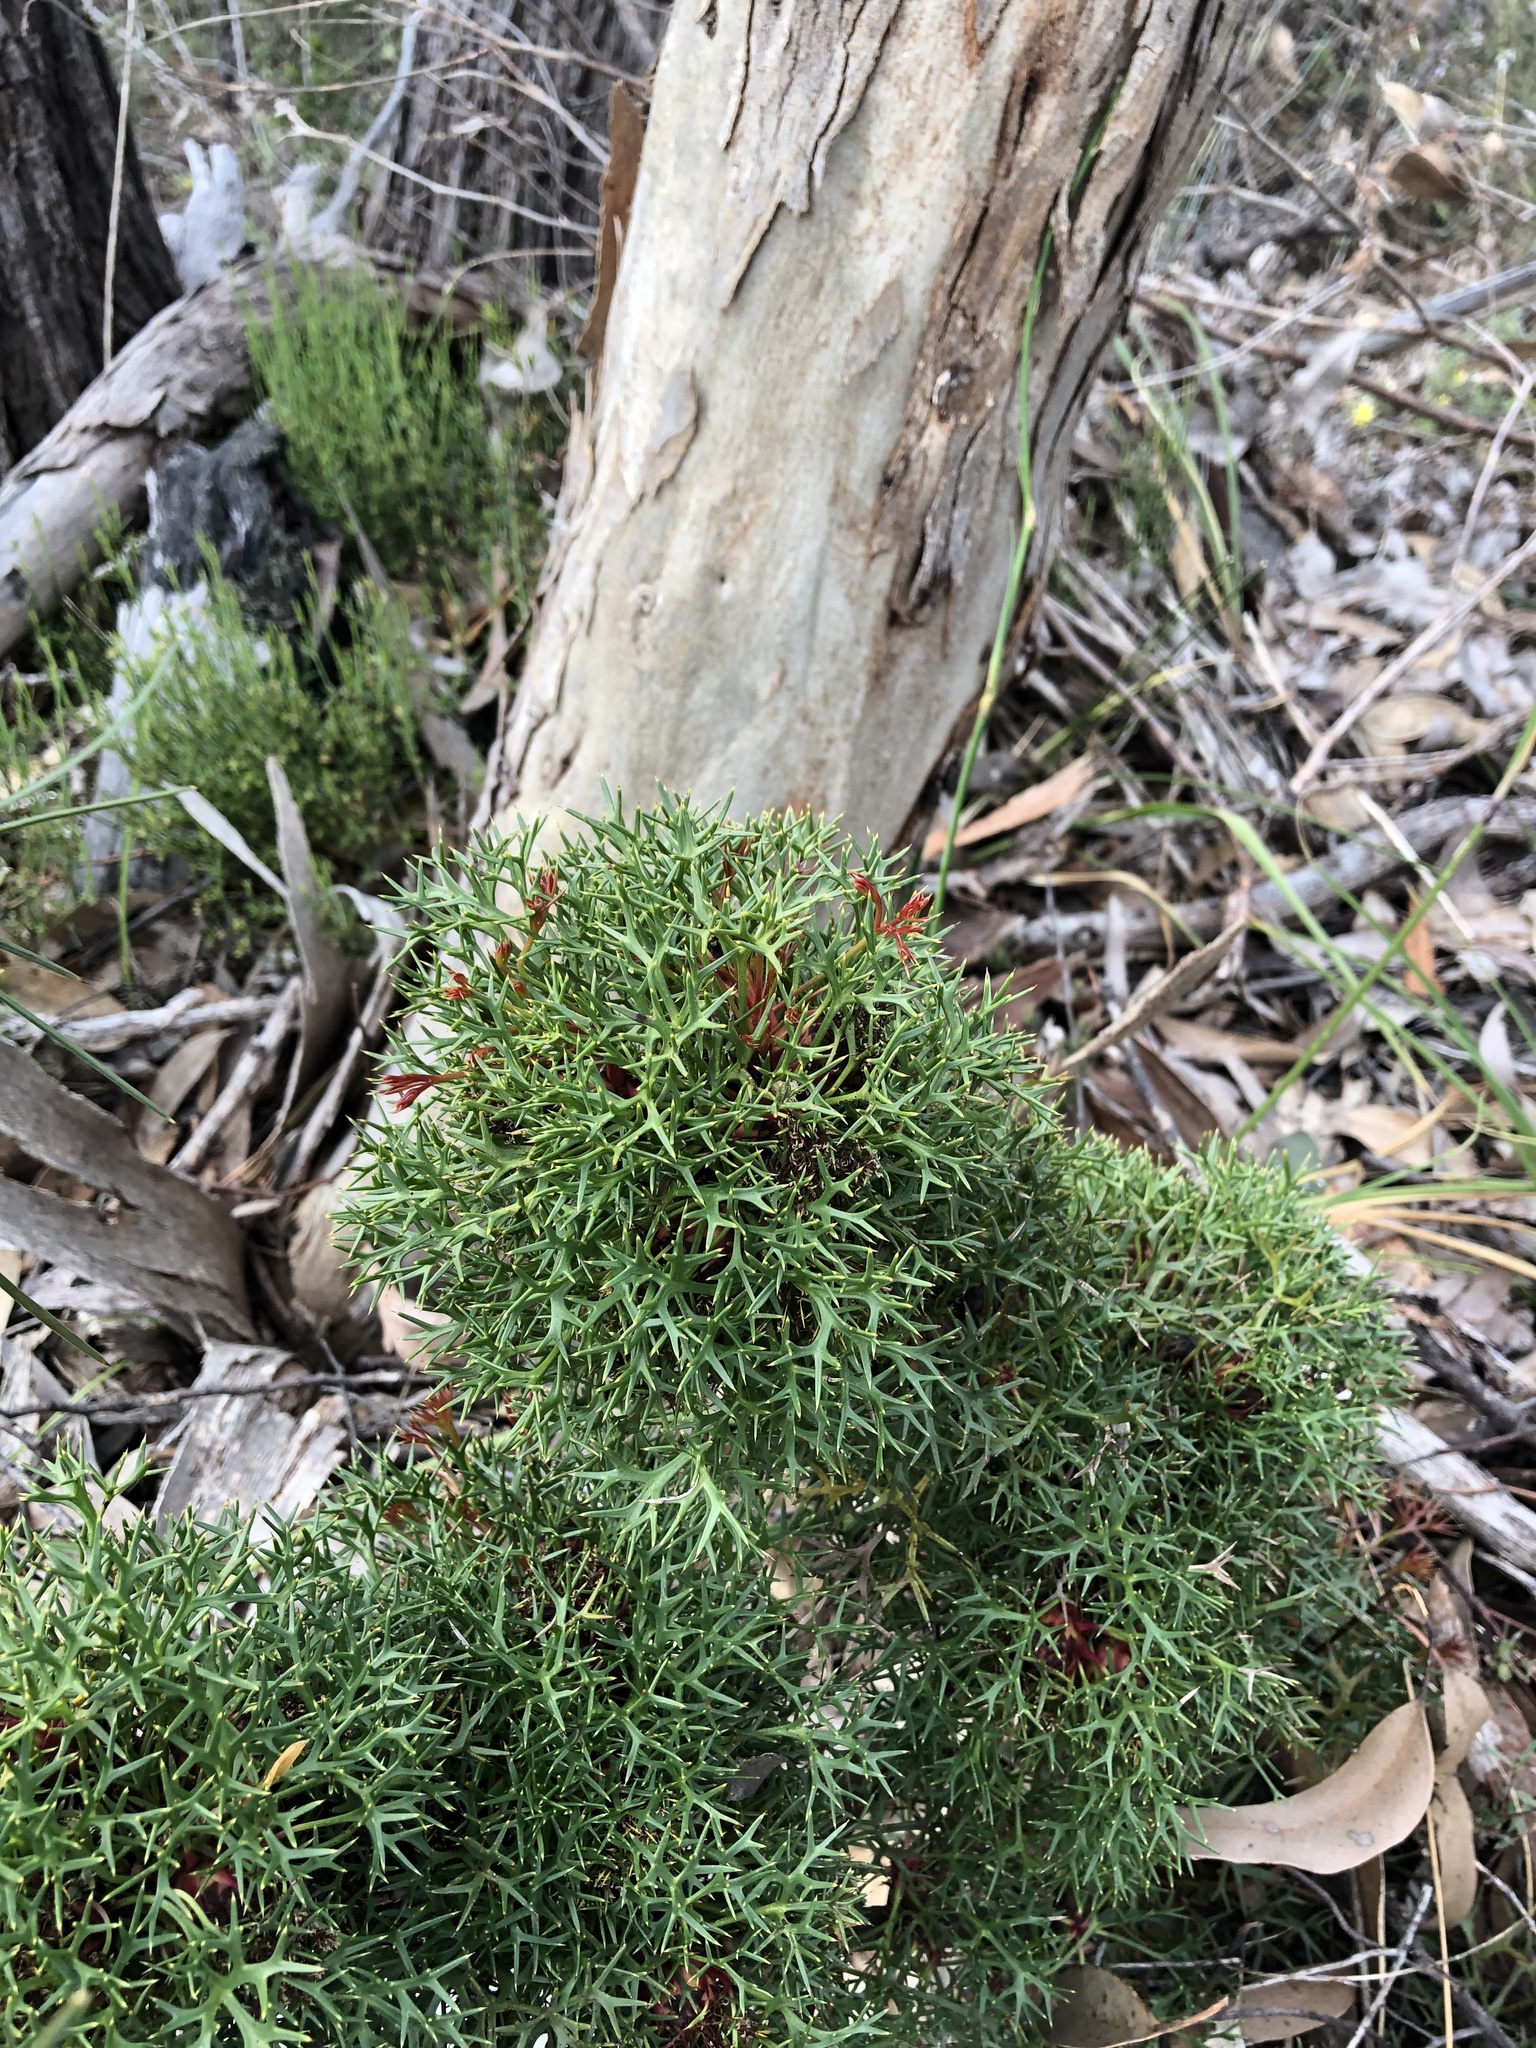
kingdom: Plantae
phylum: Tracheophyta
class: Magnoliopsida
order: Proteales
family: Proteaceae
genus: Isopogon
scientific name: Isopogon ceratophyllus
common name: Horny cone-bush
